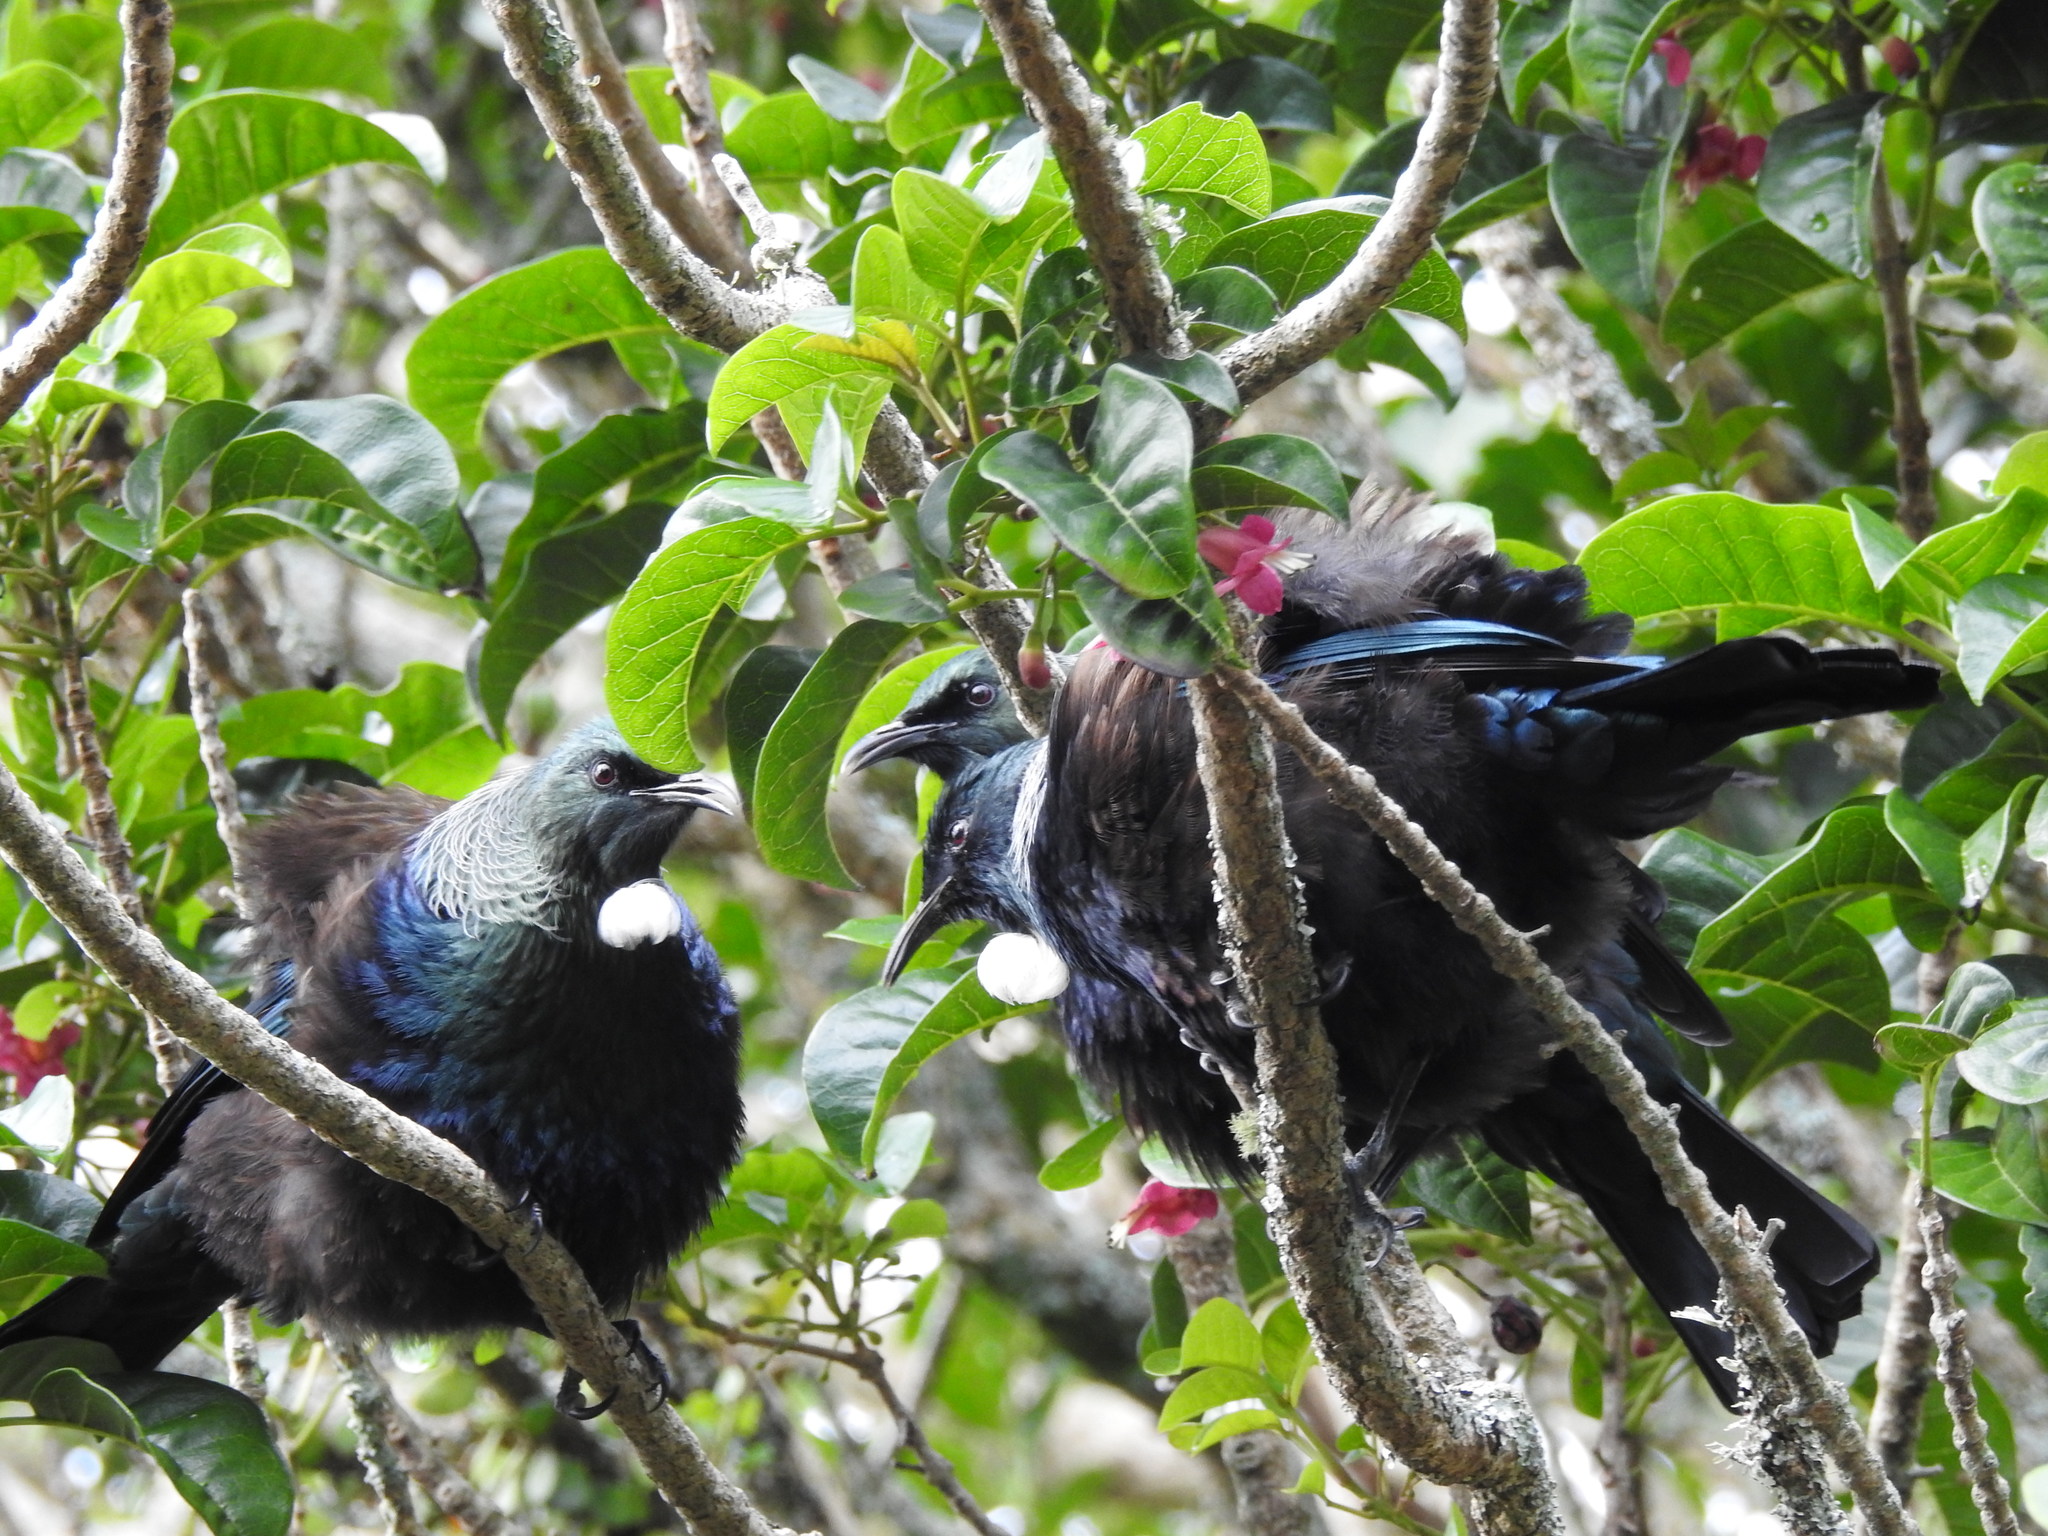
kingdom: Animalia
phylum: Chordata
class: Aves
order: Passeriformes
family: Meliphagidae
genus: Prosthemadera
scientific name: Prosthemadera novaeseelandiae
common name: Tui
